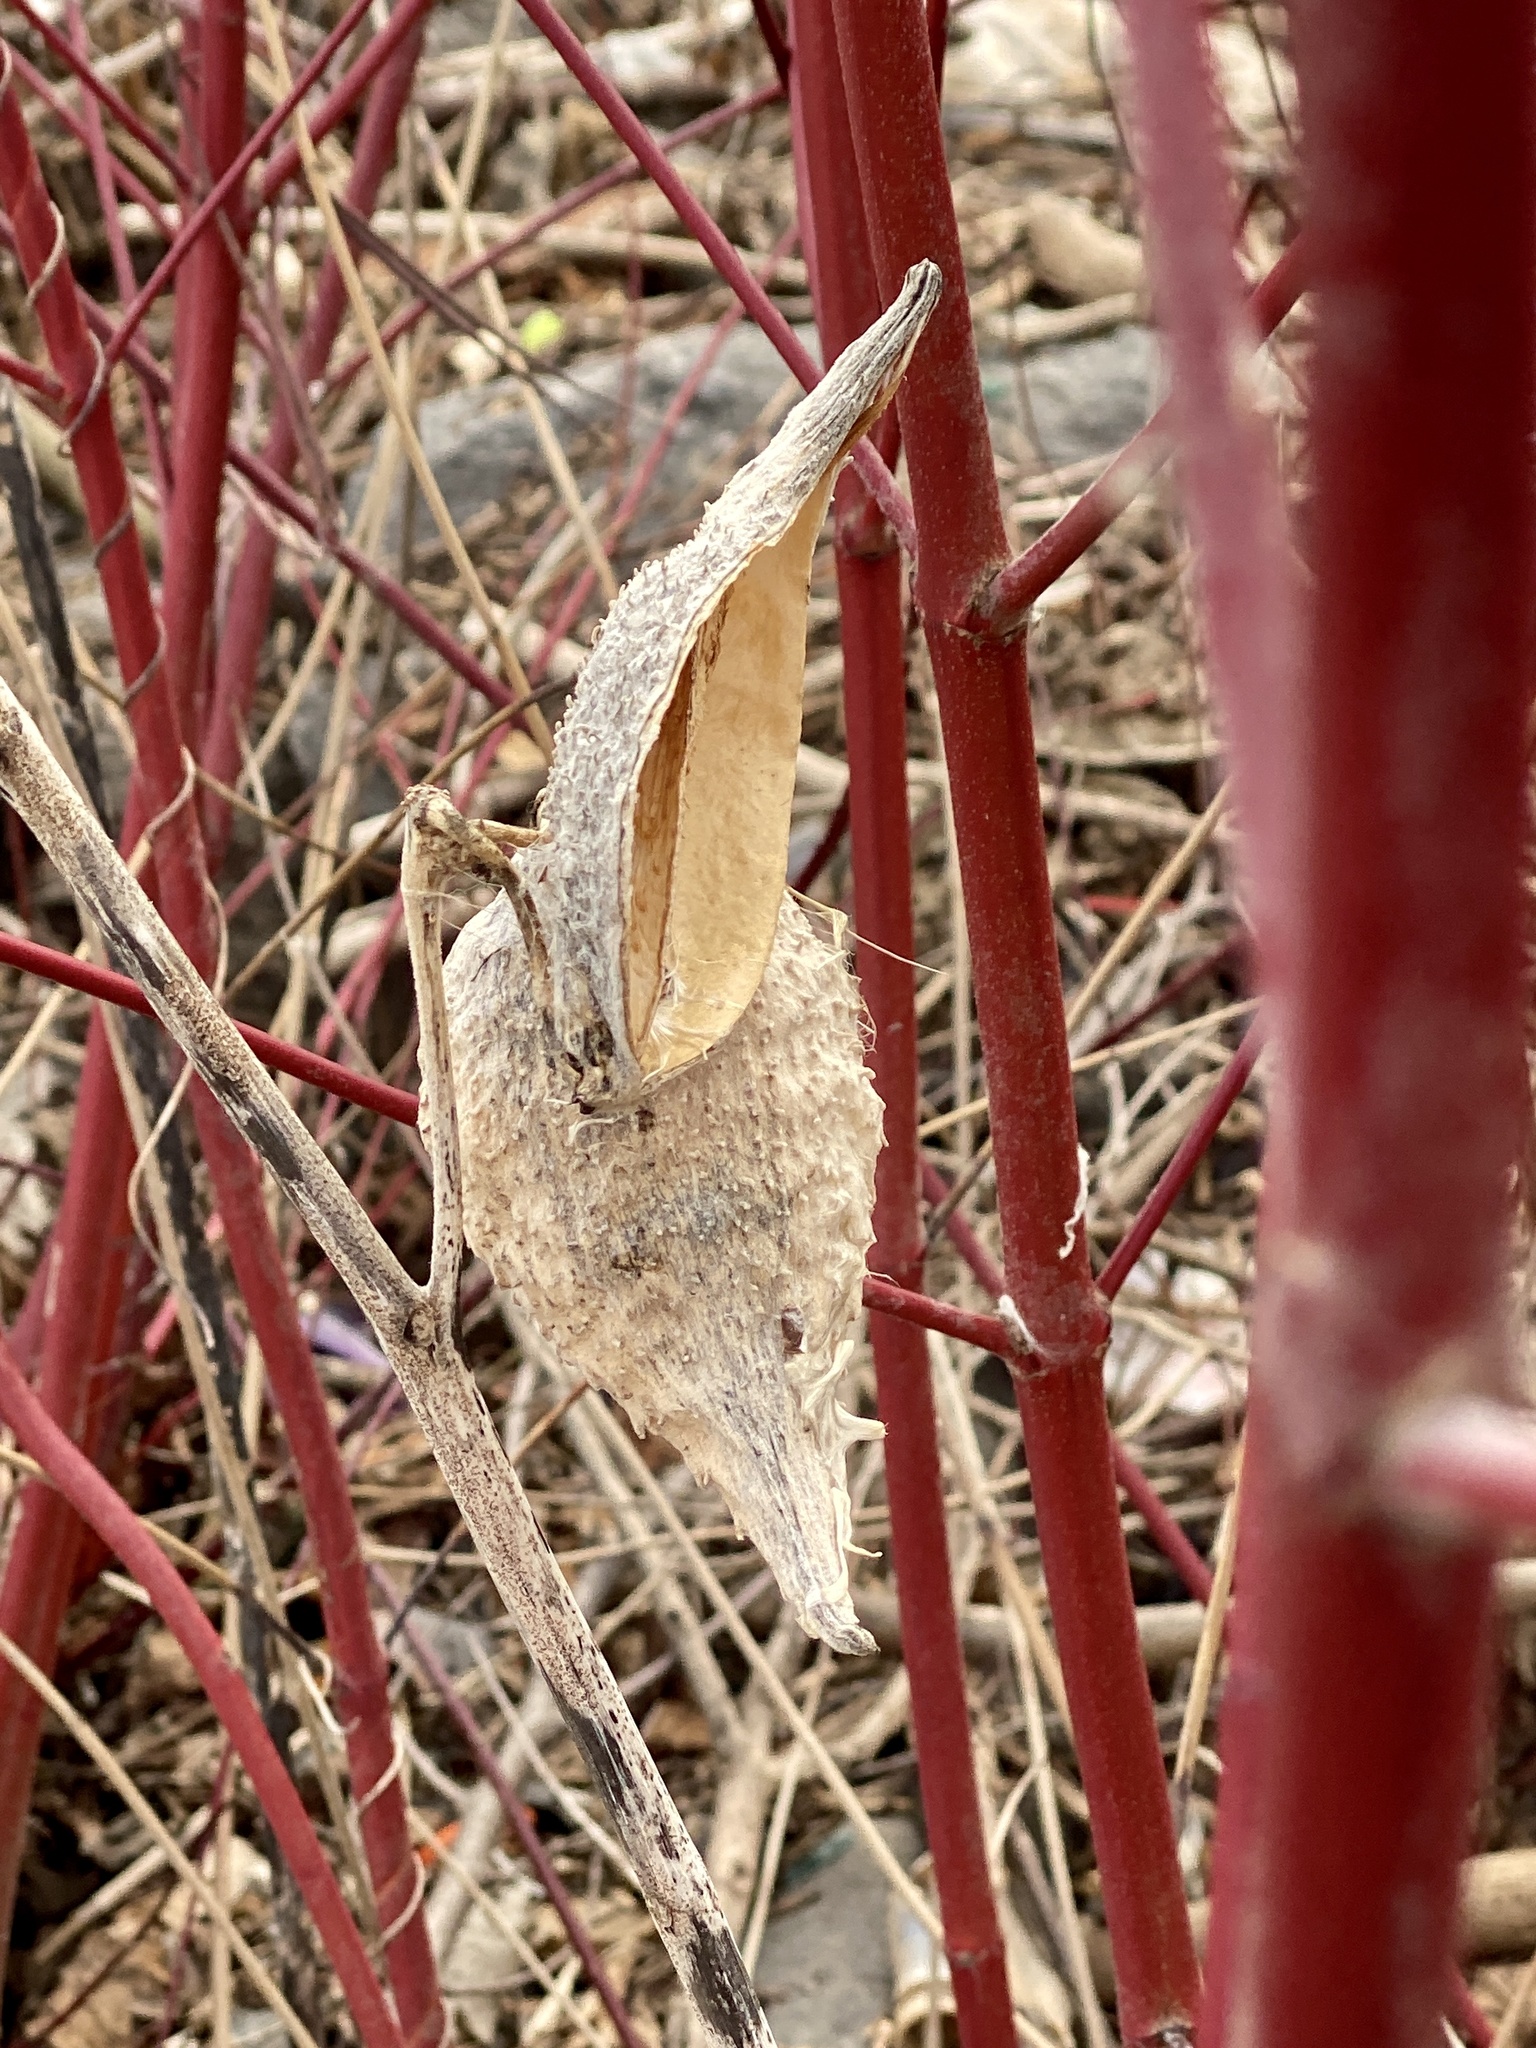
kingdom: Plantae
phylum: Tracheophyta
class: Magnoliopsida
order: Gentianales
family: Apocynaceae
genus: Asclepias
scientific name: Asclepias syriaca
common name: Common milkweed
